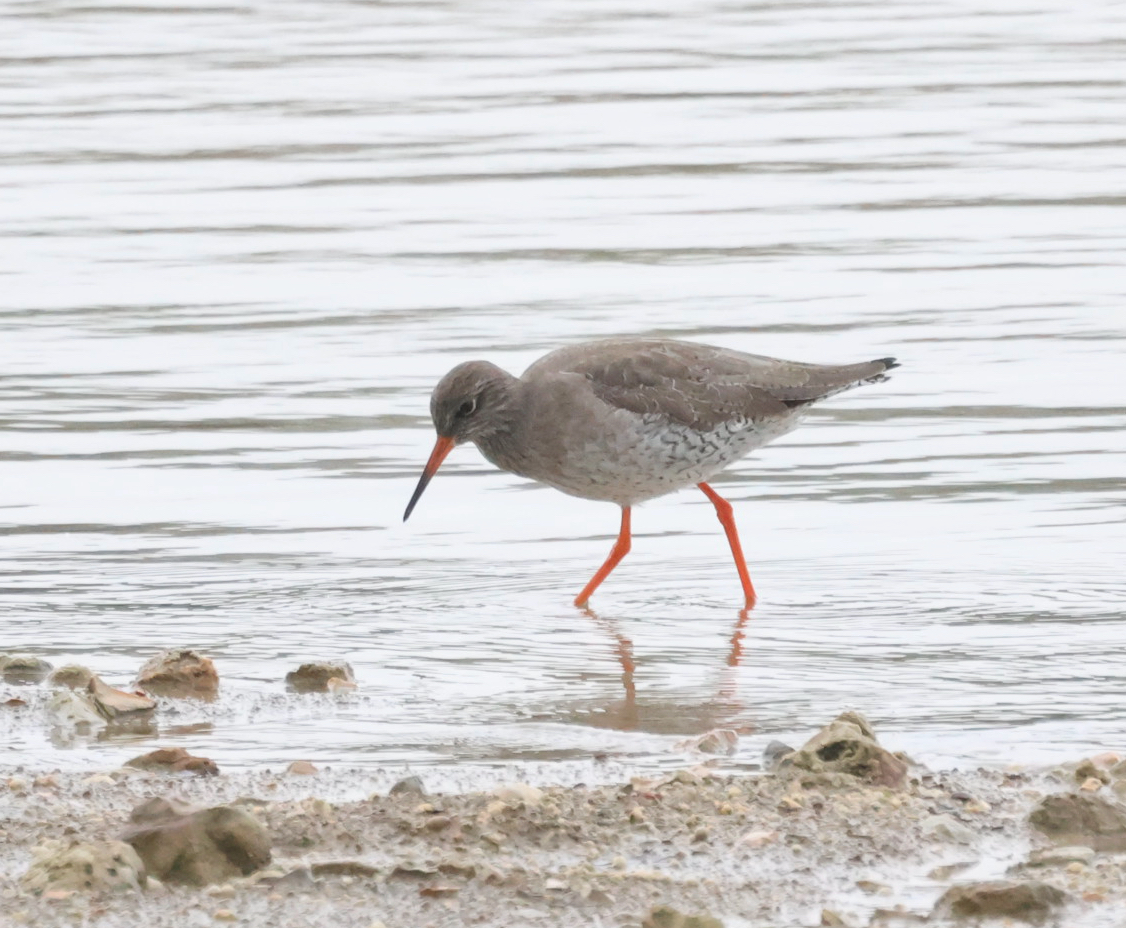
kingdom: Animalia
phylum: Chordata
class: Aves
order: Charadriiformes
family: Scolopacidae
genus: Tringa
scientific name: Tringa totanus
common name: Common redshank
